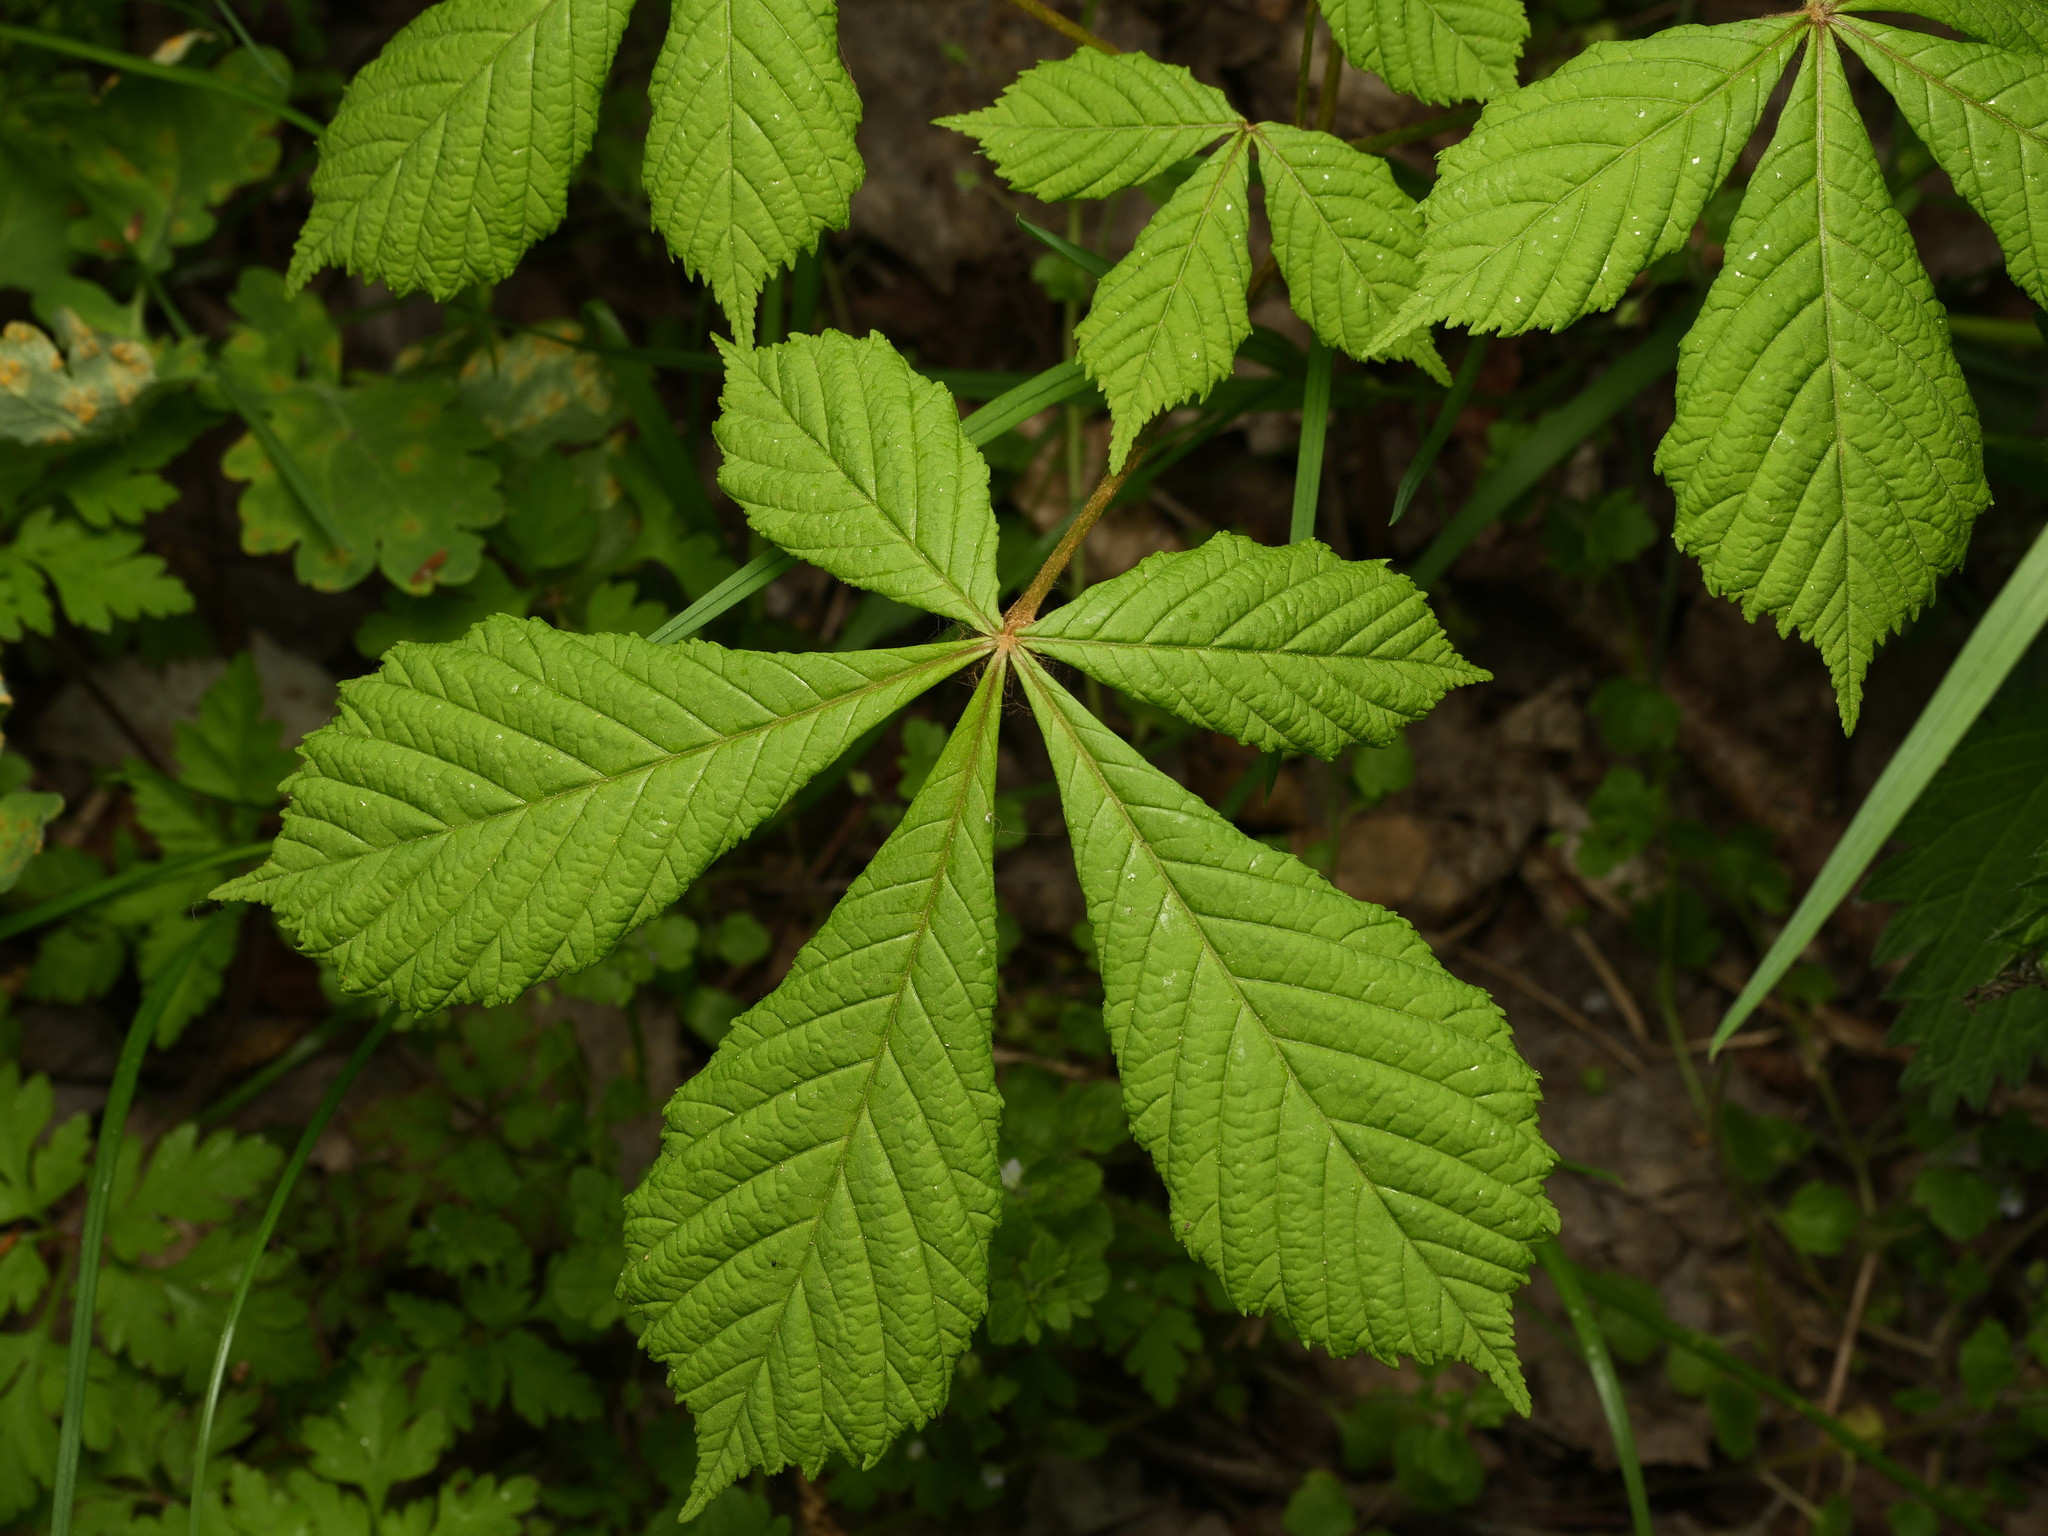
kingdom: Plantae
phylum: Tracheophyta
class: Magnoliopsida
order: Sapindales
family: Sapindaceae
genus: Aesculus
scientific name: Aesculus hippocastanum
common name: Horse-chestnut
